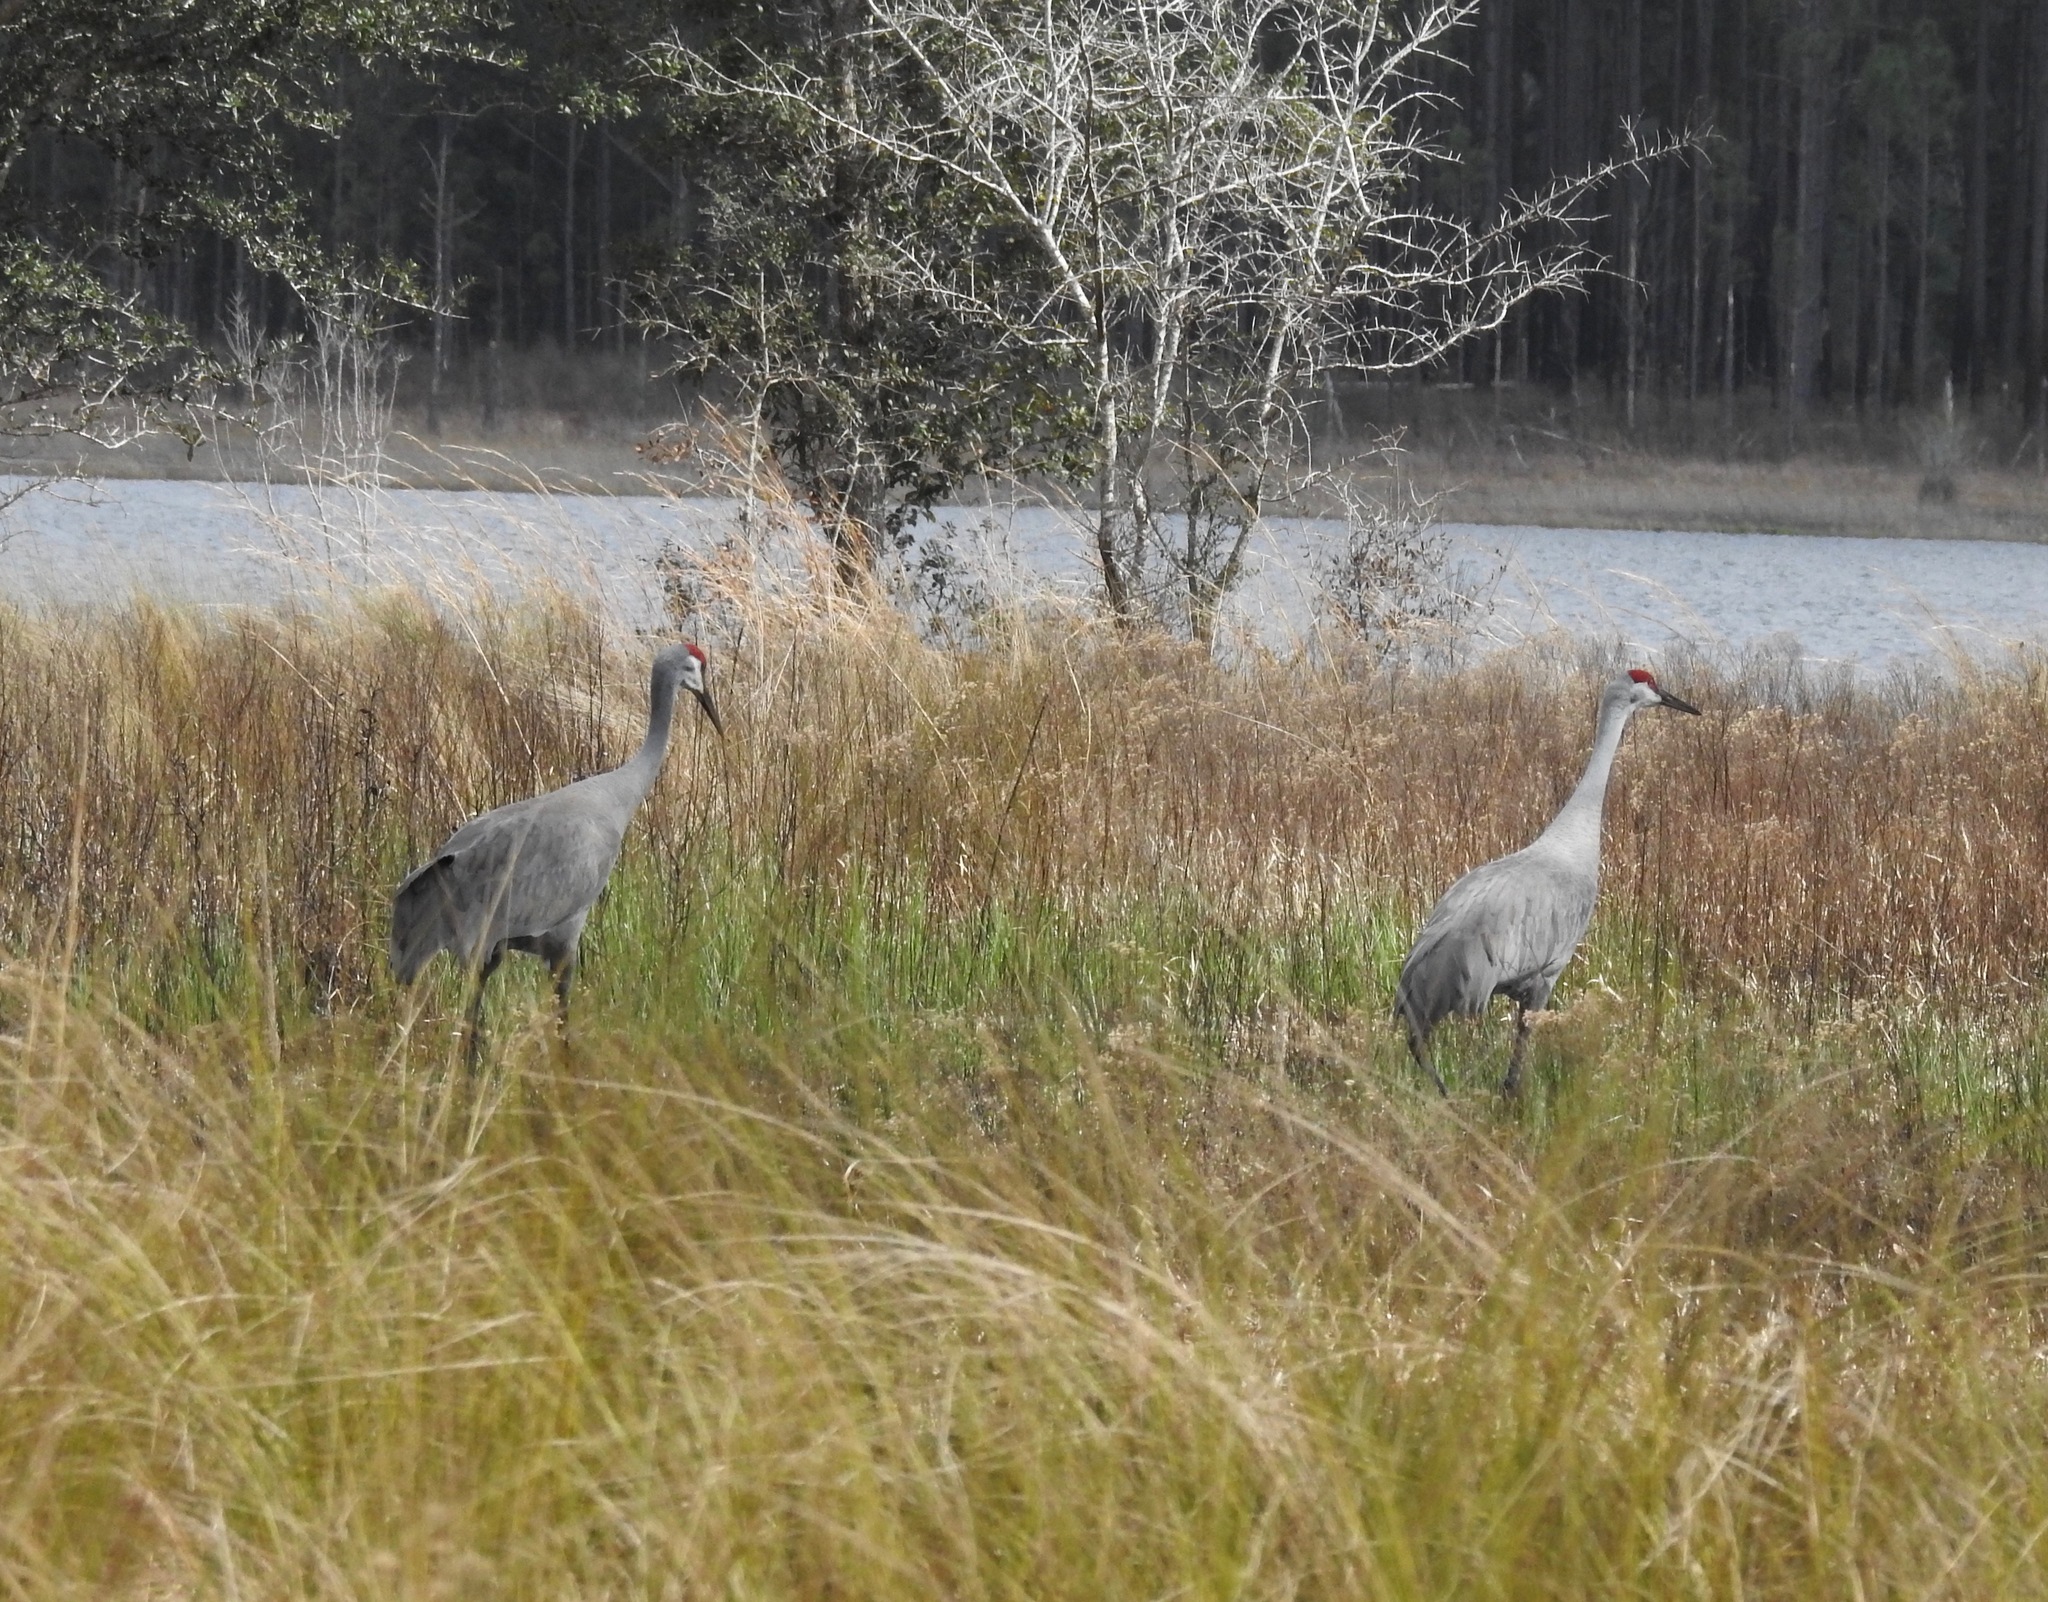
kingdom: Animalia
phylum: Chordata
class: Aves
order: Gruiformes
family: Gruidae
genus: Grus
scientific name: Grus canadensis
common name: Sandhill crane
